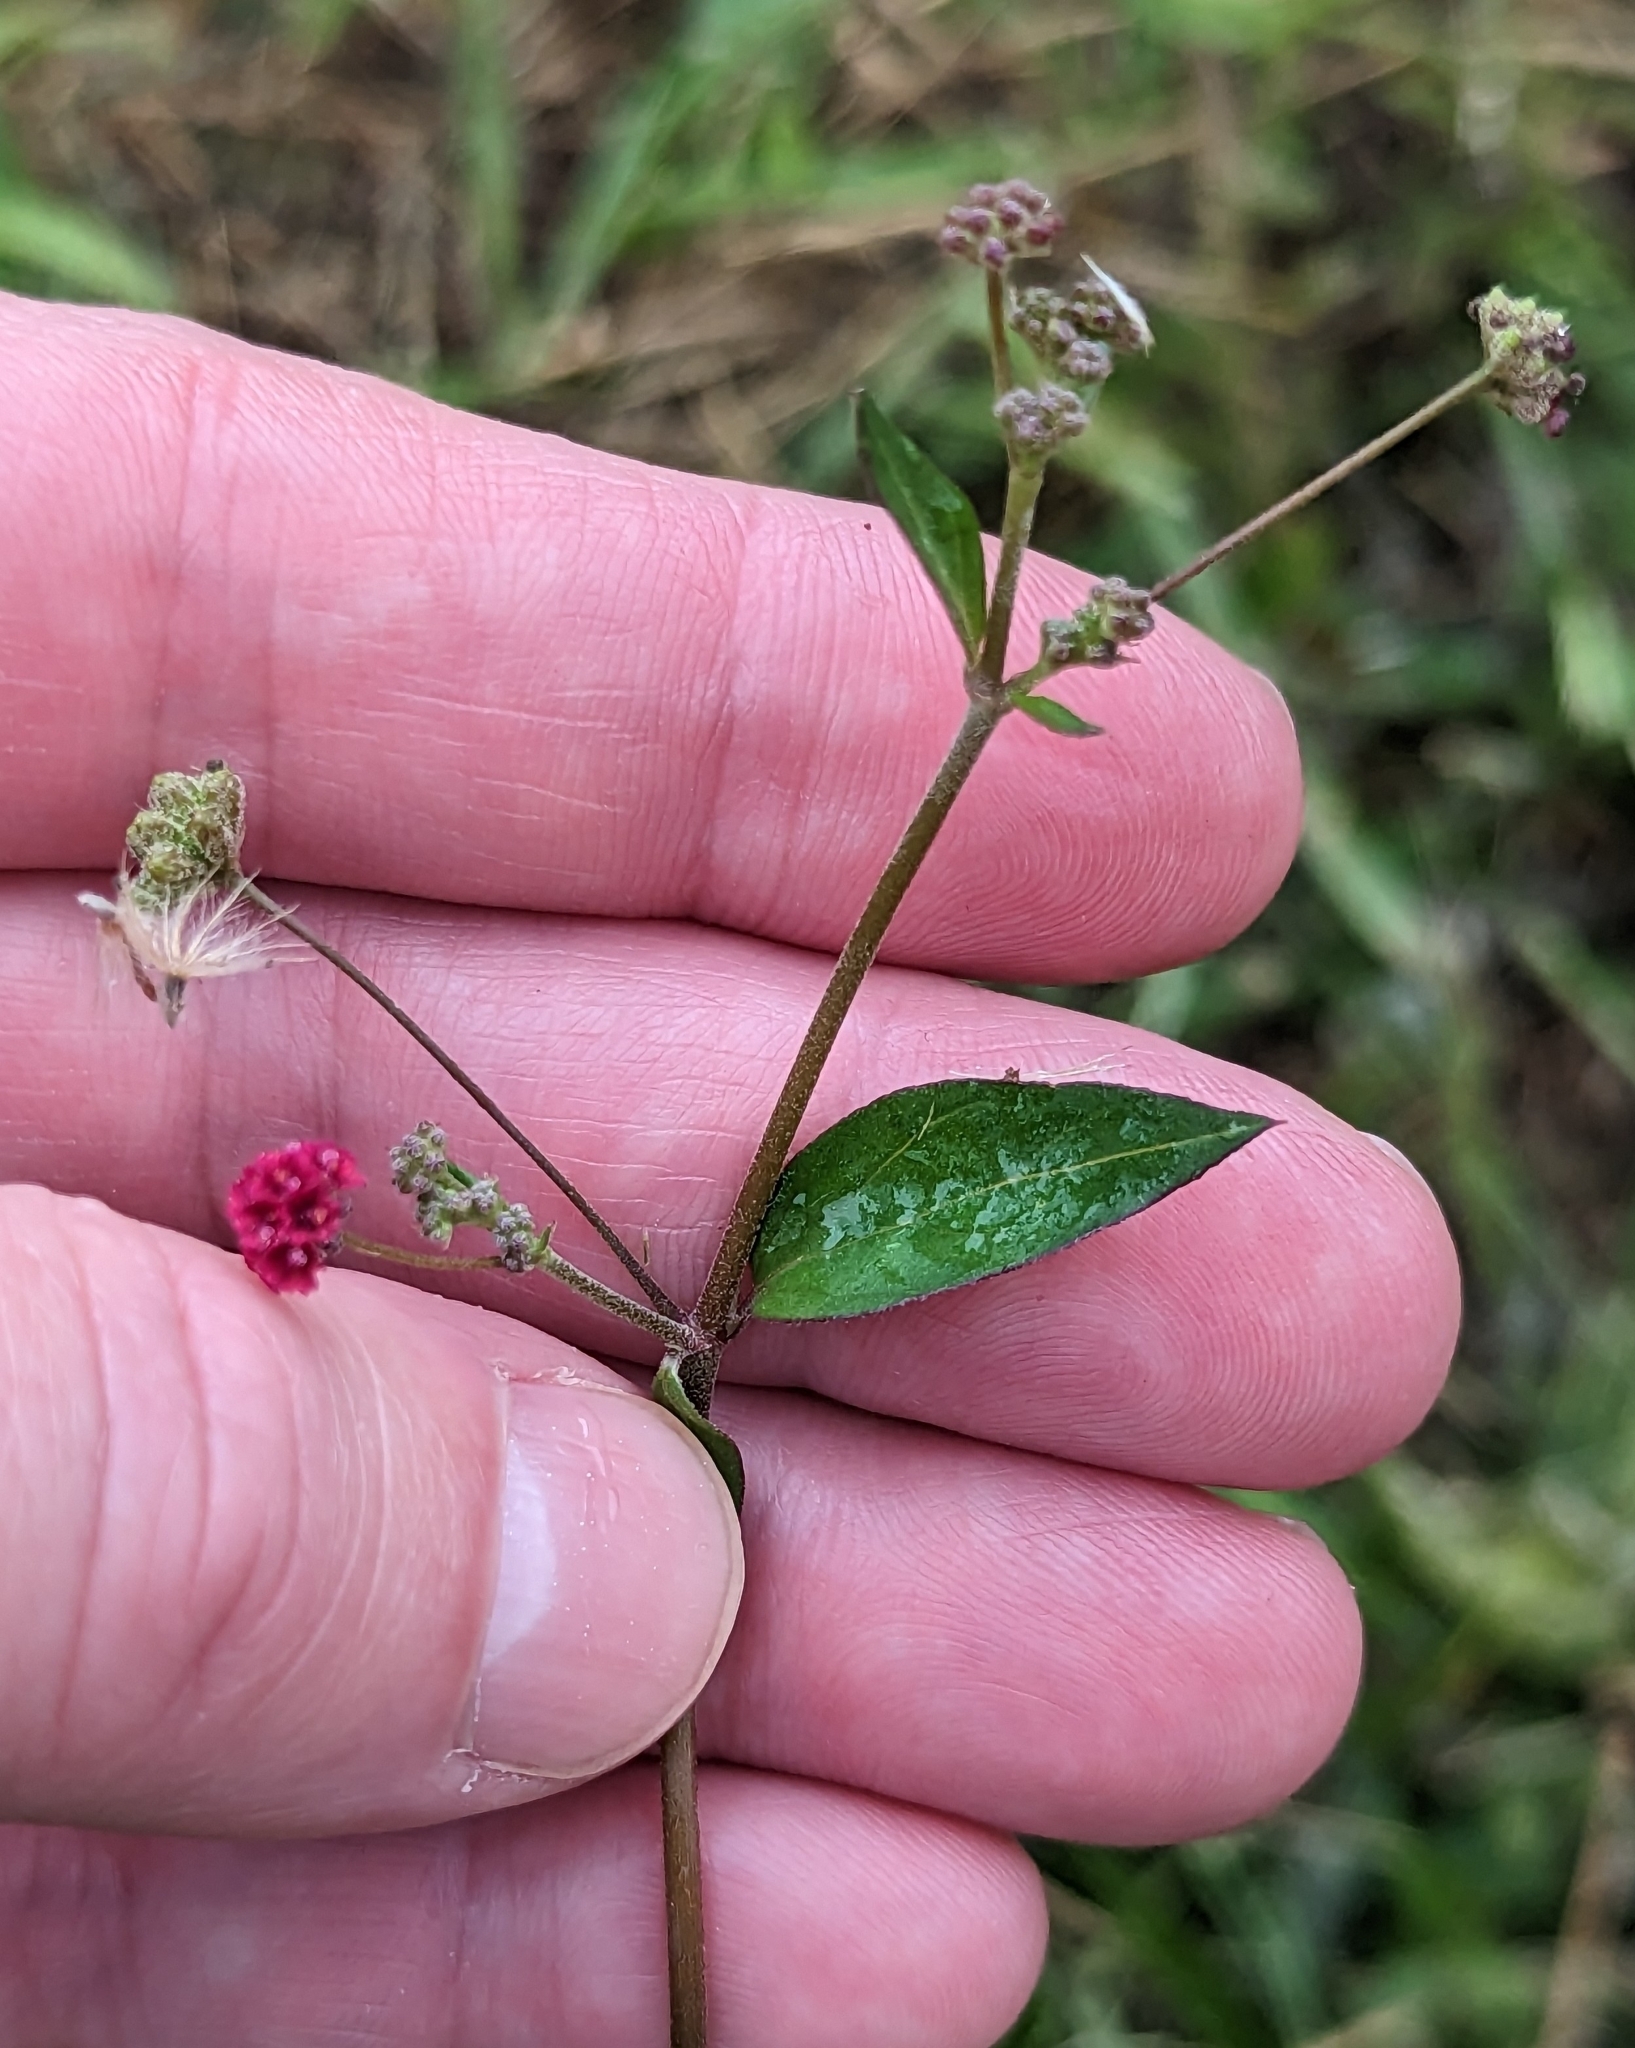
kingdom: Plantae
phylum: Tracheophyta
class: Magnoliopsida
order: Caryophyllales
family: Nyctaginaceae
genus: Boerhavia
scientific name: Boerhavia coccinea
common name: Scarlet spiderling
